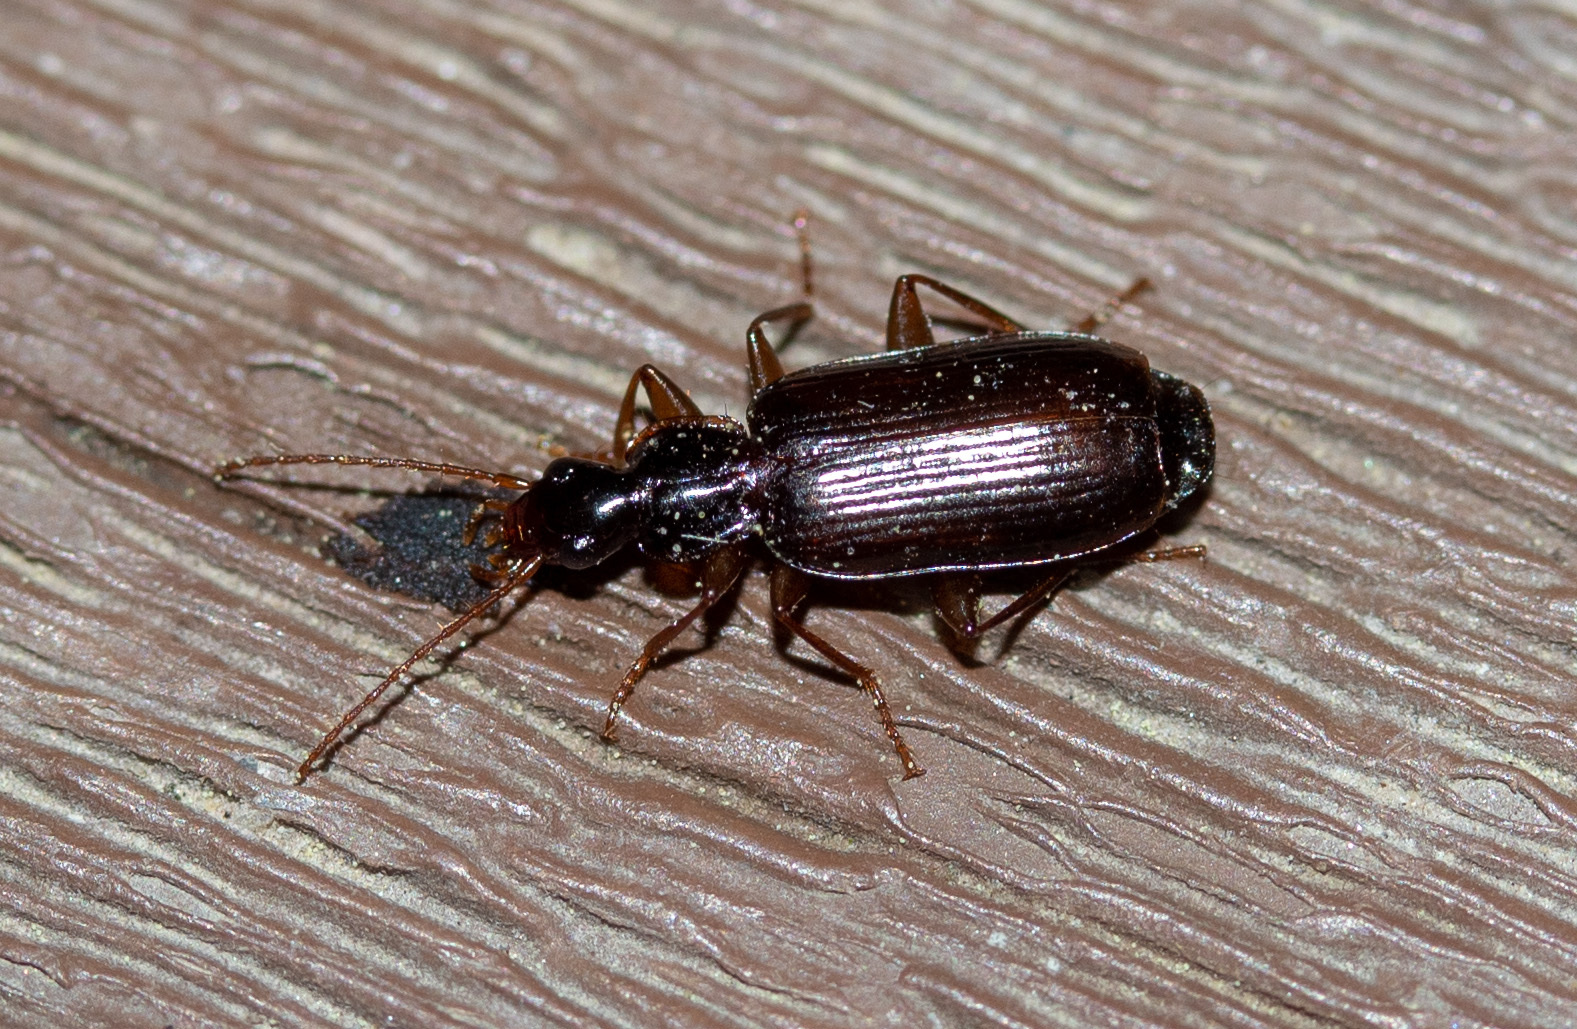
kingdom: Animalia
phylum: Arthropoda
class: Insecta
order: Coleoptera
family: Carabidae
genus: Dromius
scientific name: Dromius piceus
